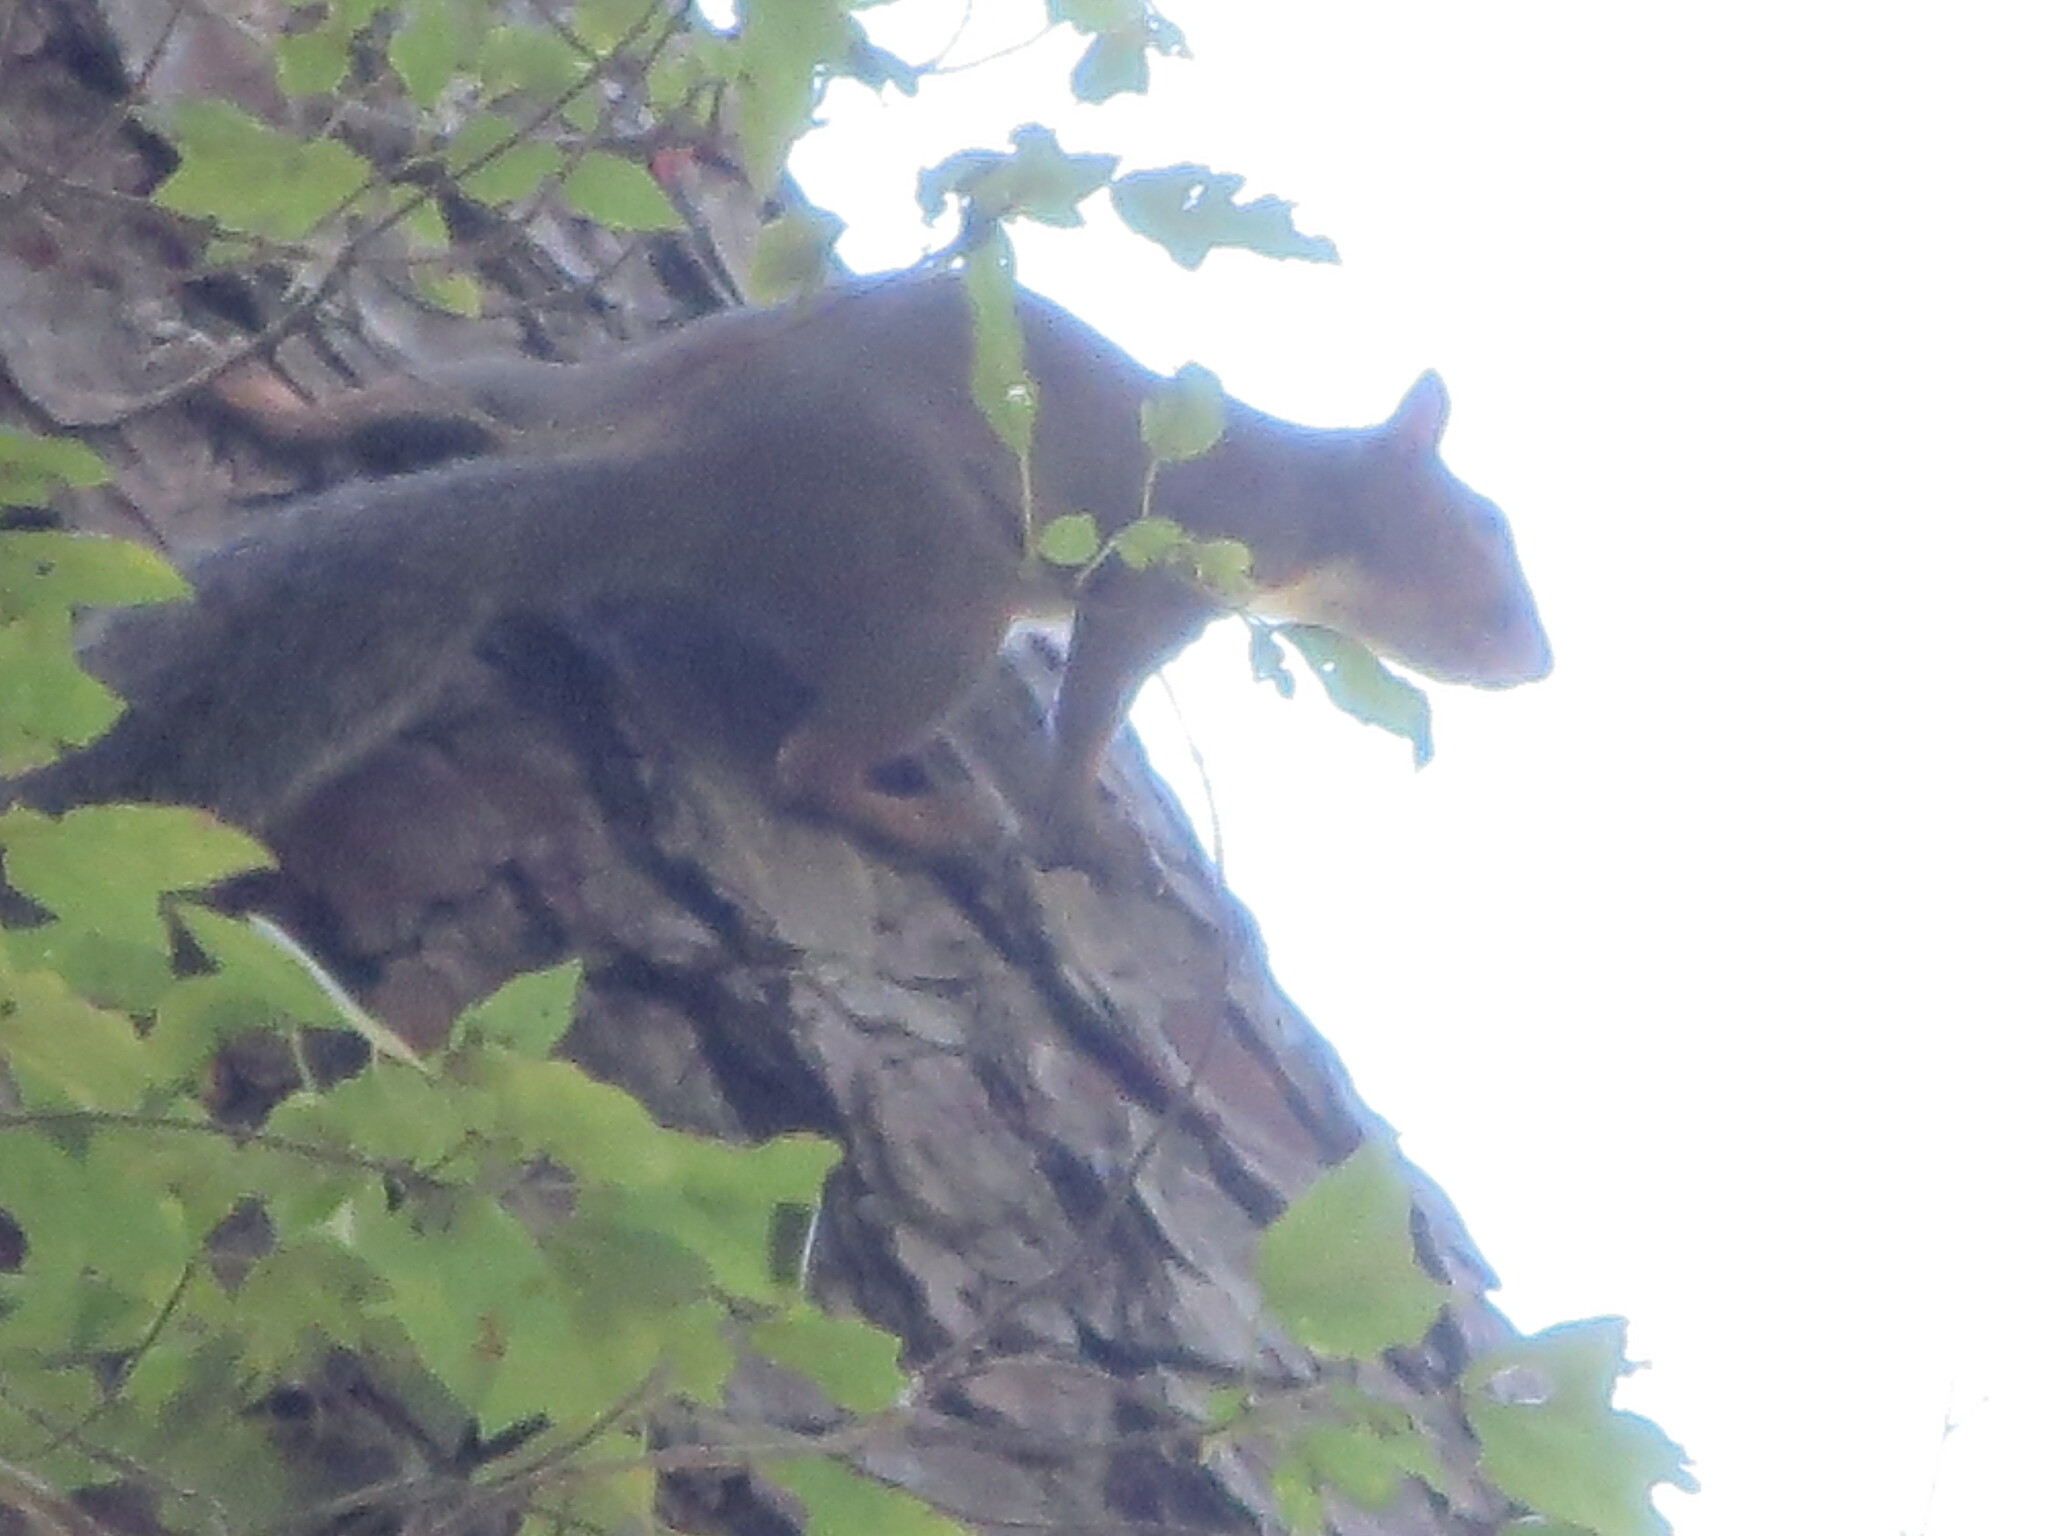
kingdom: Animalia
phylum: Chordata
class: Mammalia
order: Rodentia
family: Sciuridae
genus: Sciurus
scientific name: Sciurus carolinensis
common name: Eastern gray squirrel
